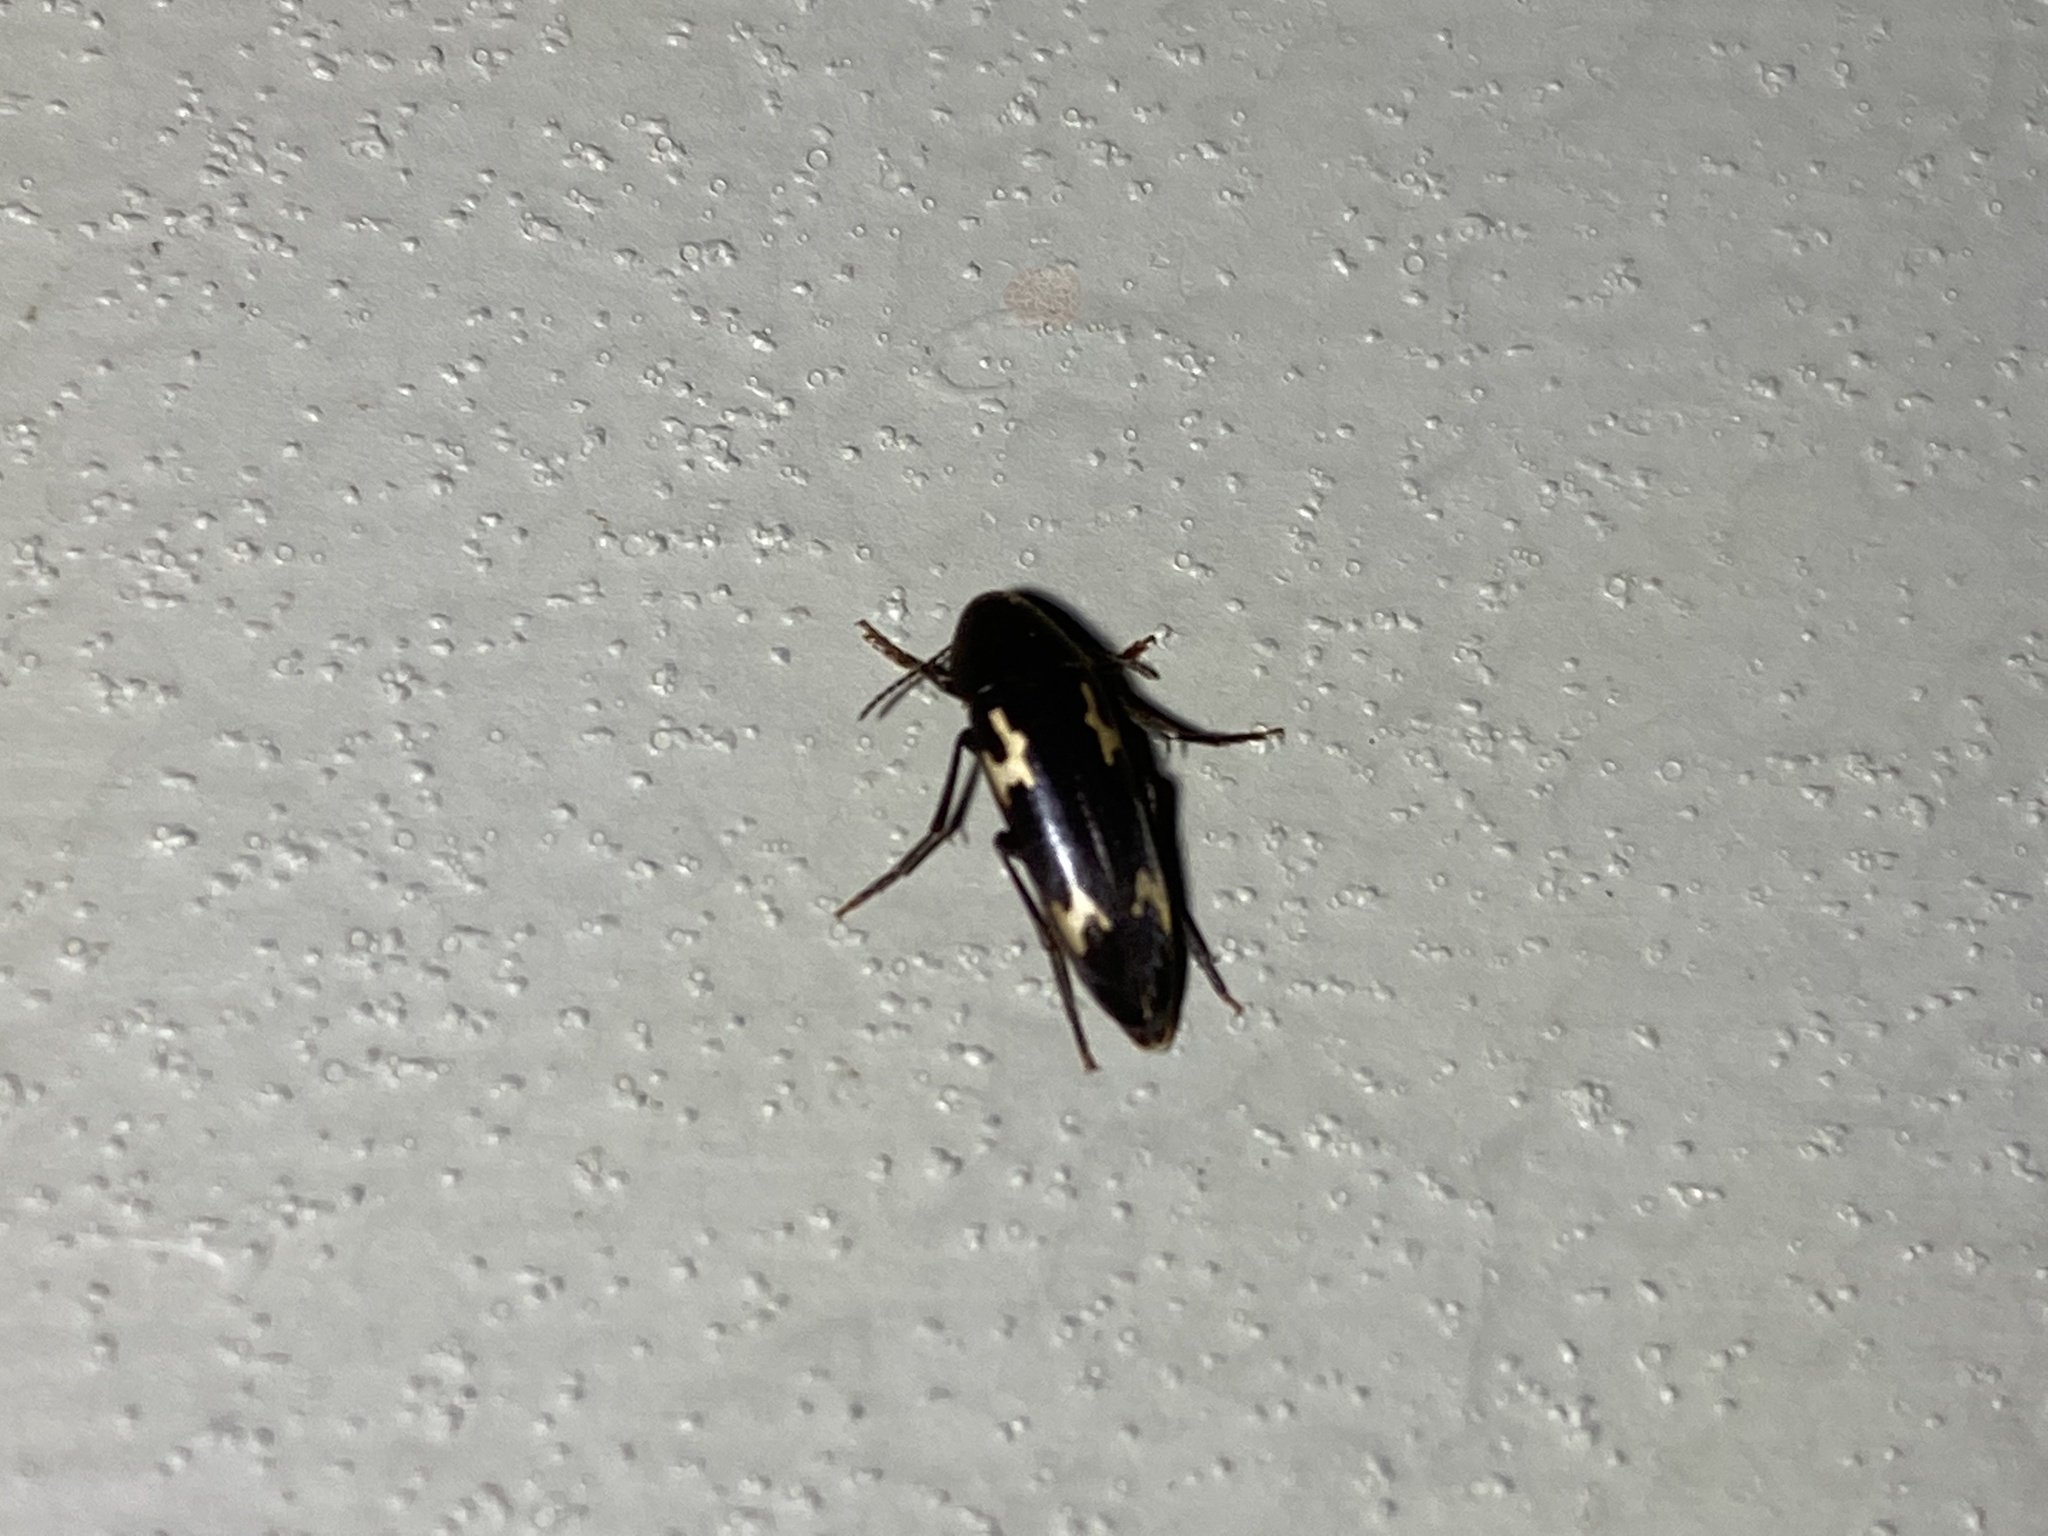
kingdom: Animalia
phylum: Arthropoda
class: Insecta
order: Coleoptera
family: Melandryidae
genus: Dircaea
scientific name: Dircaea liturata
